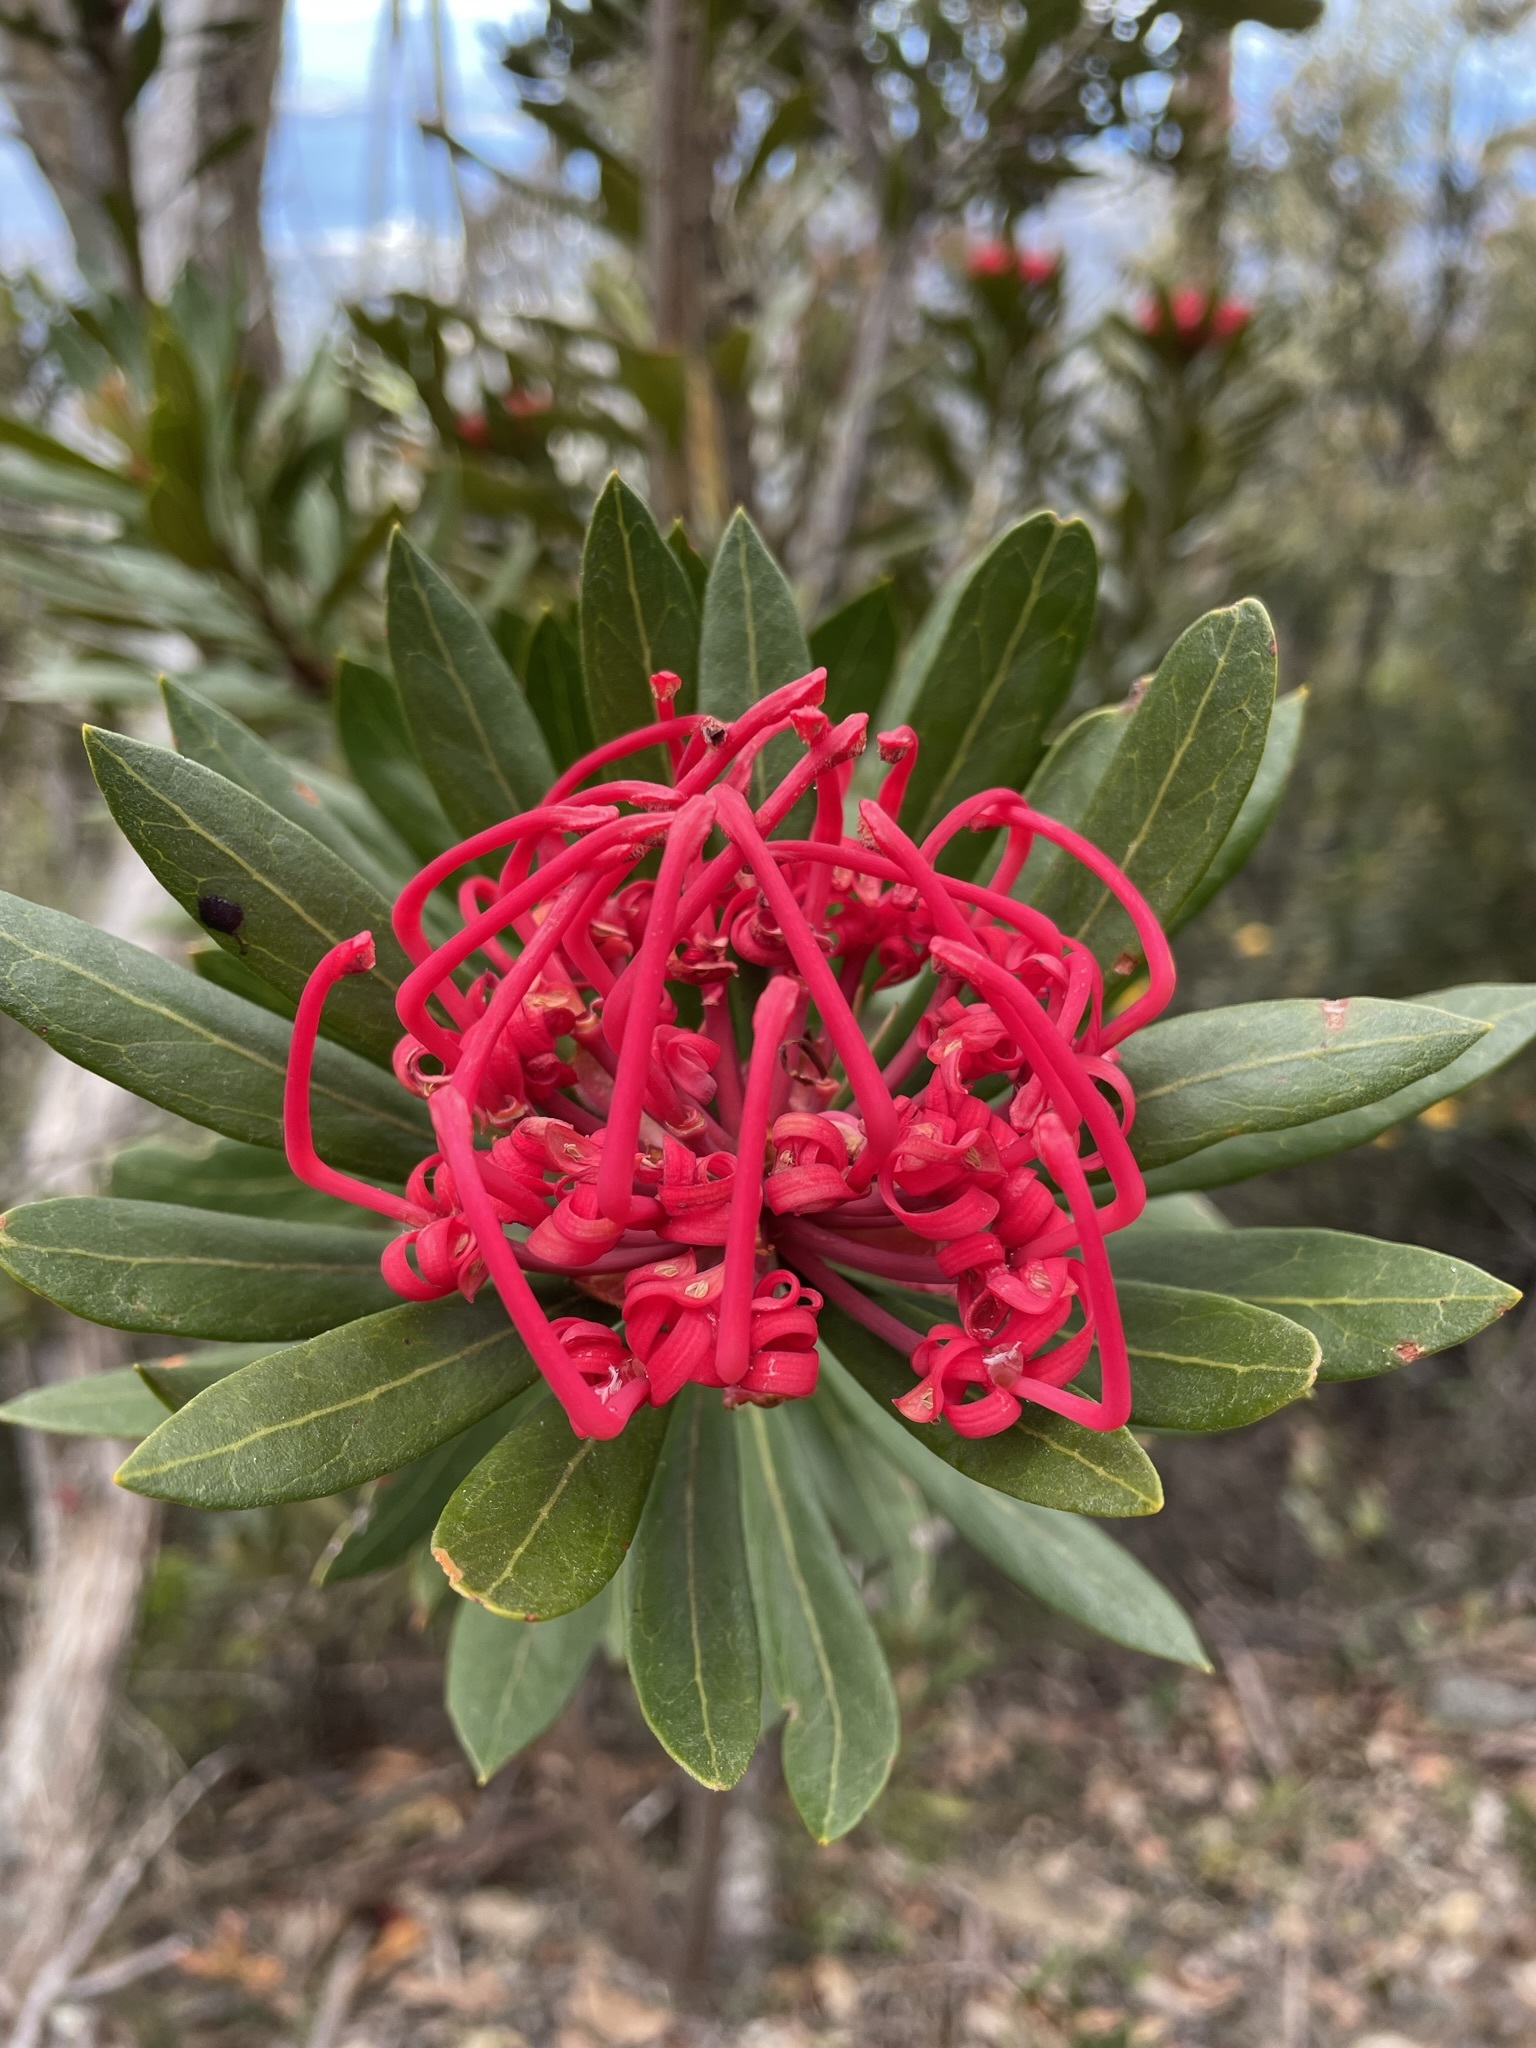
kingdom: Plantae
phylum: Tracheophyta
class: Magnoliopsida
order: Proteales
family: Proteaceae
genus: Telopea
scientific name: Telopea truncata
